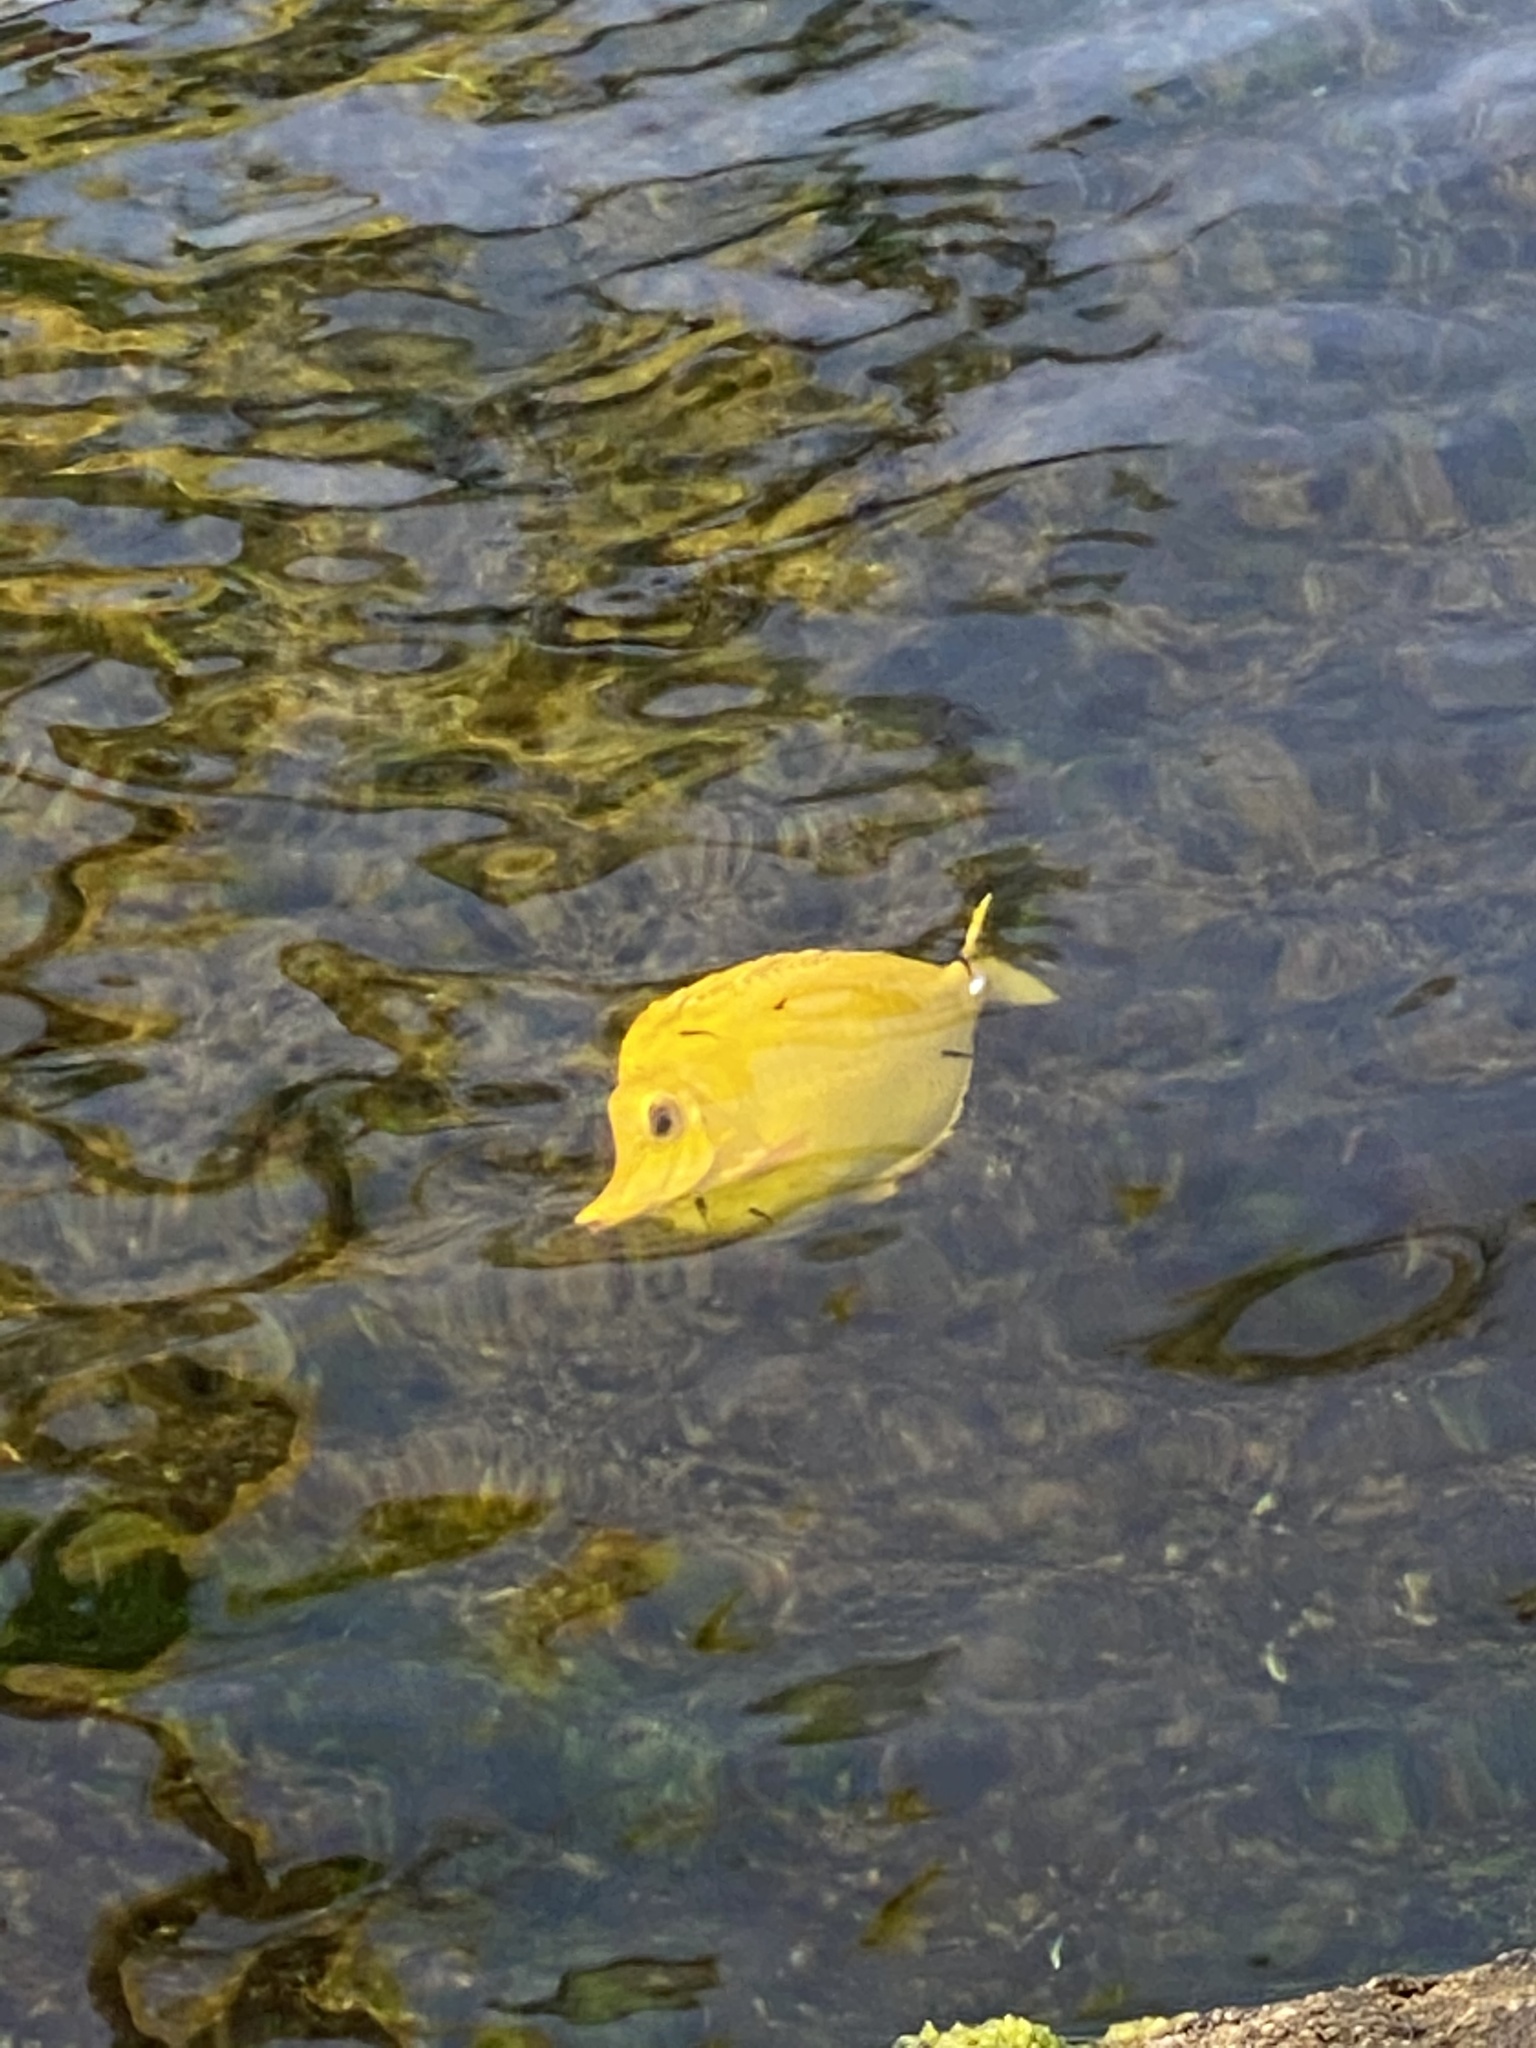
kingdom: Animalia
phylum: Chordata
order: Perciformes
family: Acanthuridae
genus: Zebrasoma
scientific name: Zebrasoma flavescens
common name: Yellow tang
